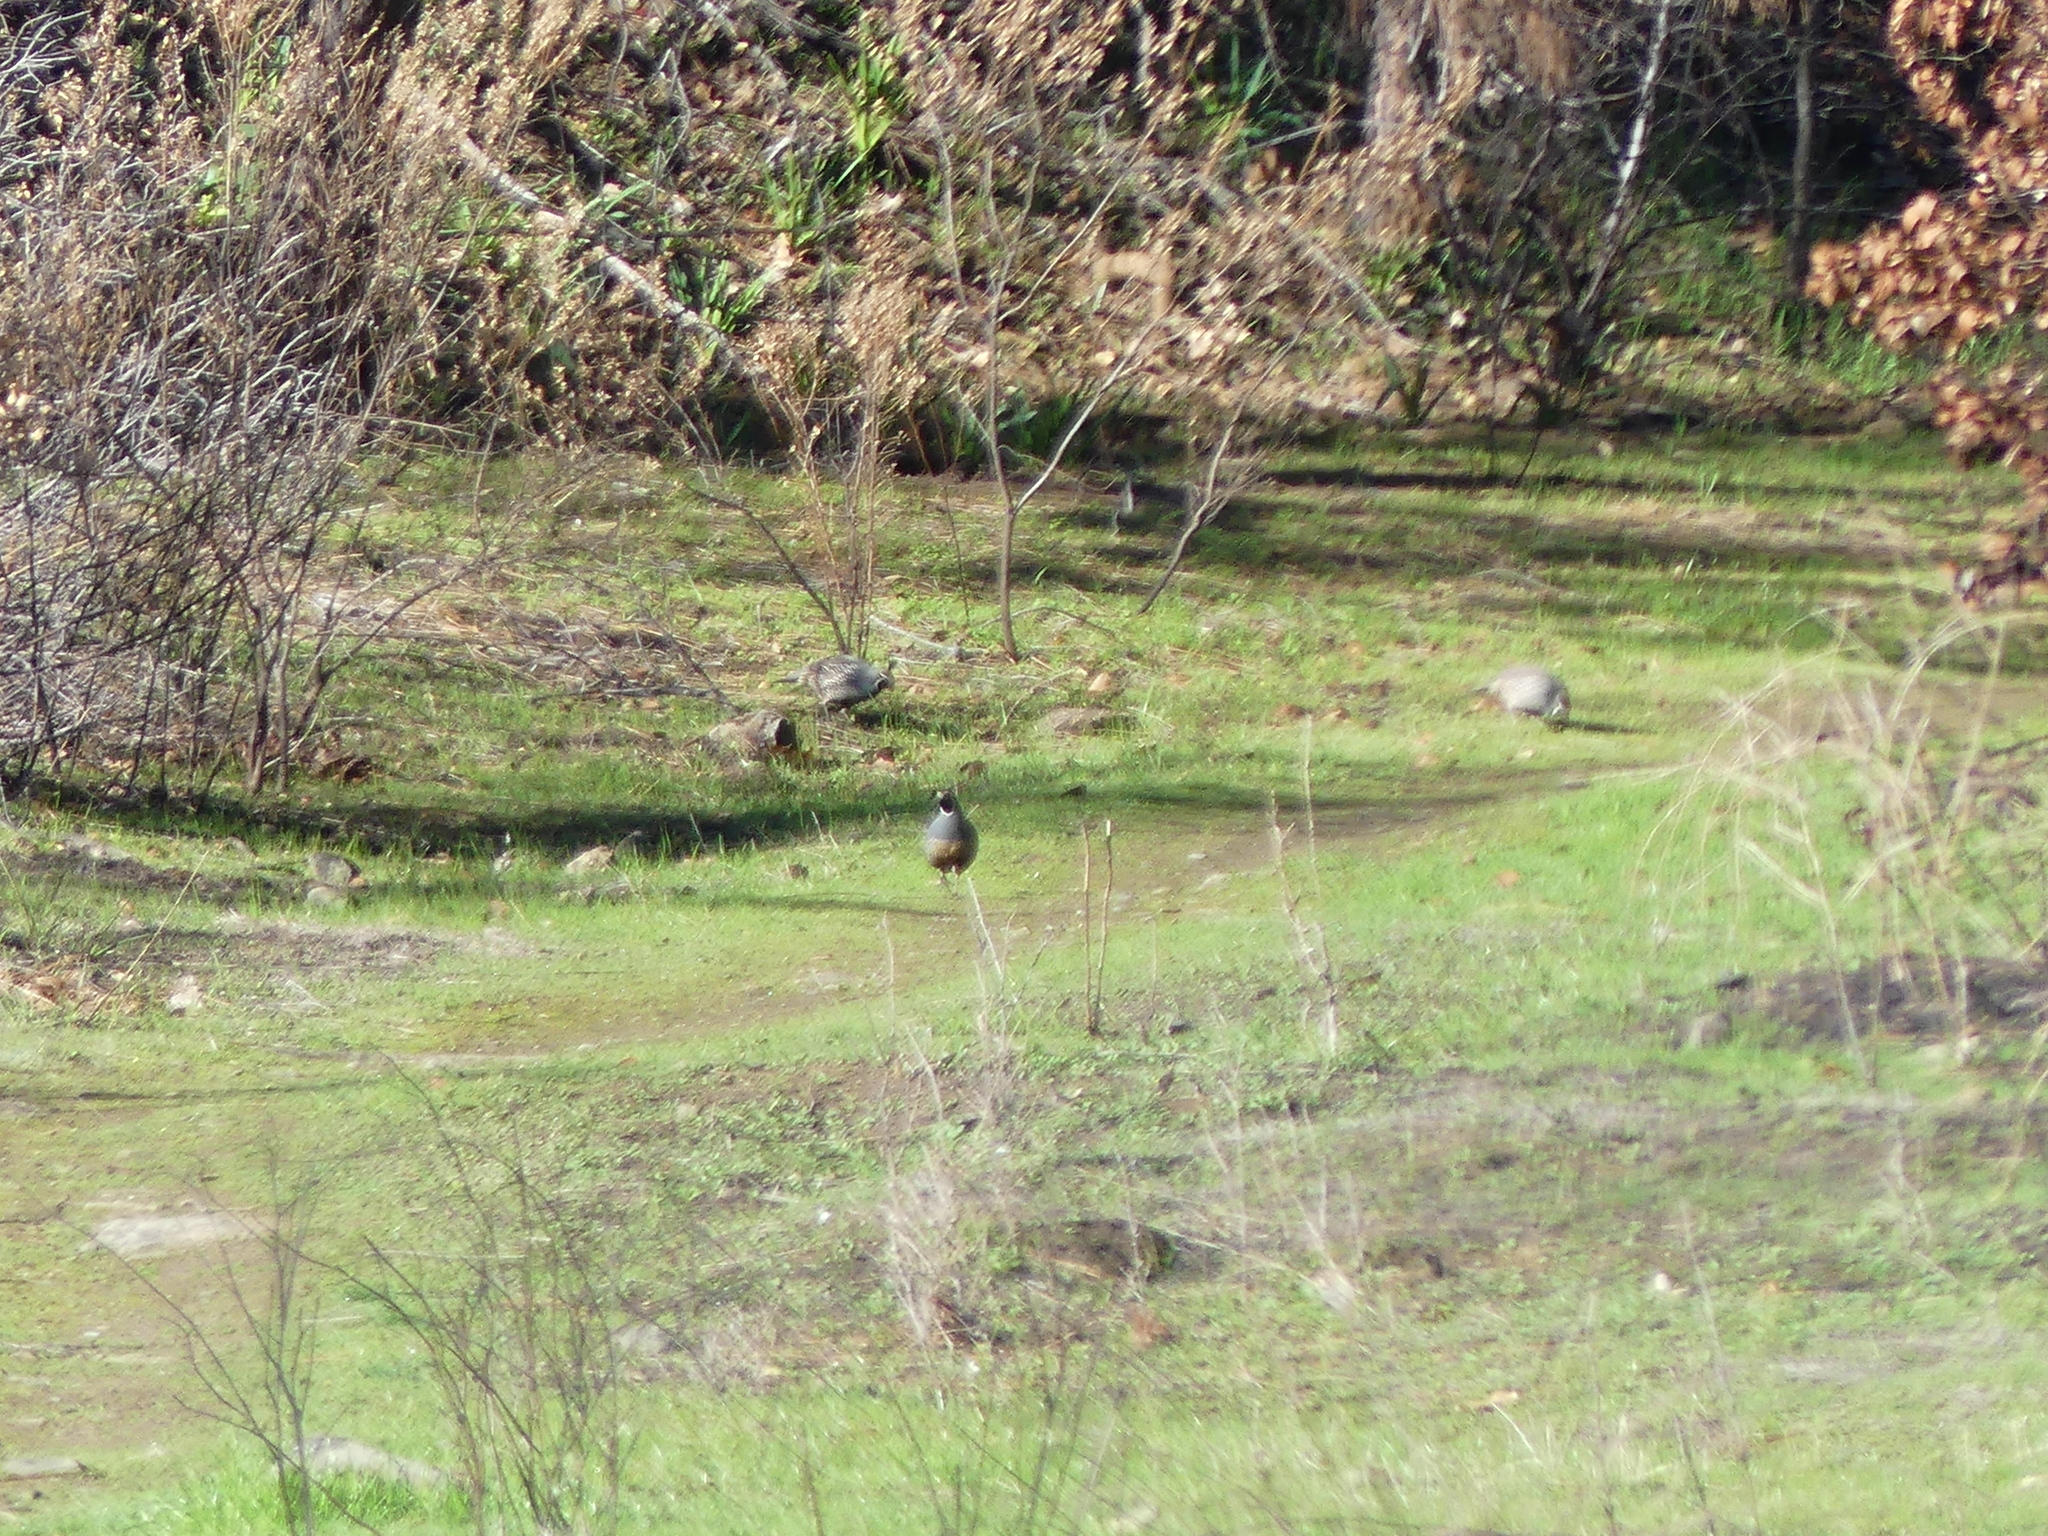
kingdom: Animalia
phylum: Chordata
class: Aves
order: Galliformes
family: Odontophoridae
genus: Callipepla
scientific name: Callipepla californica
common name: California quail
